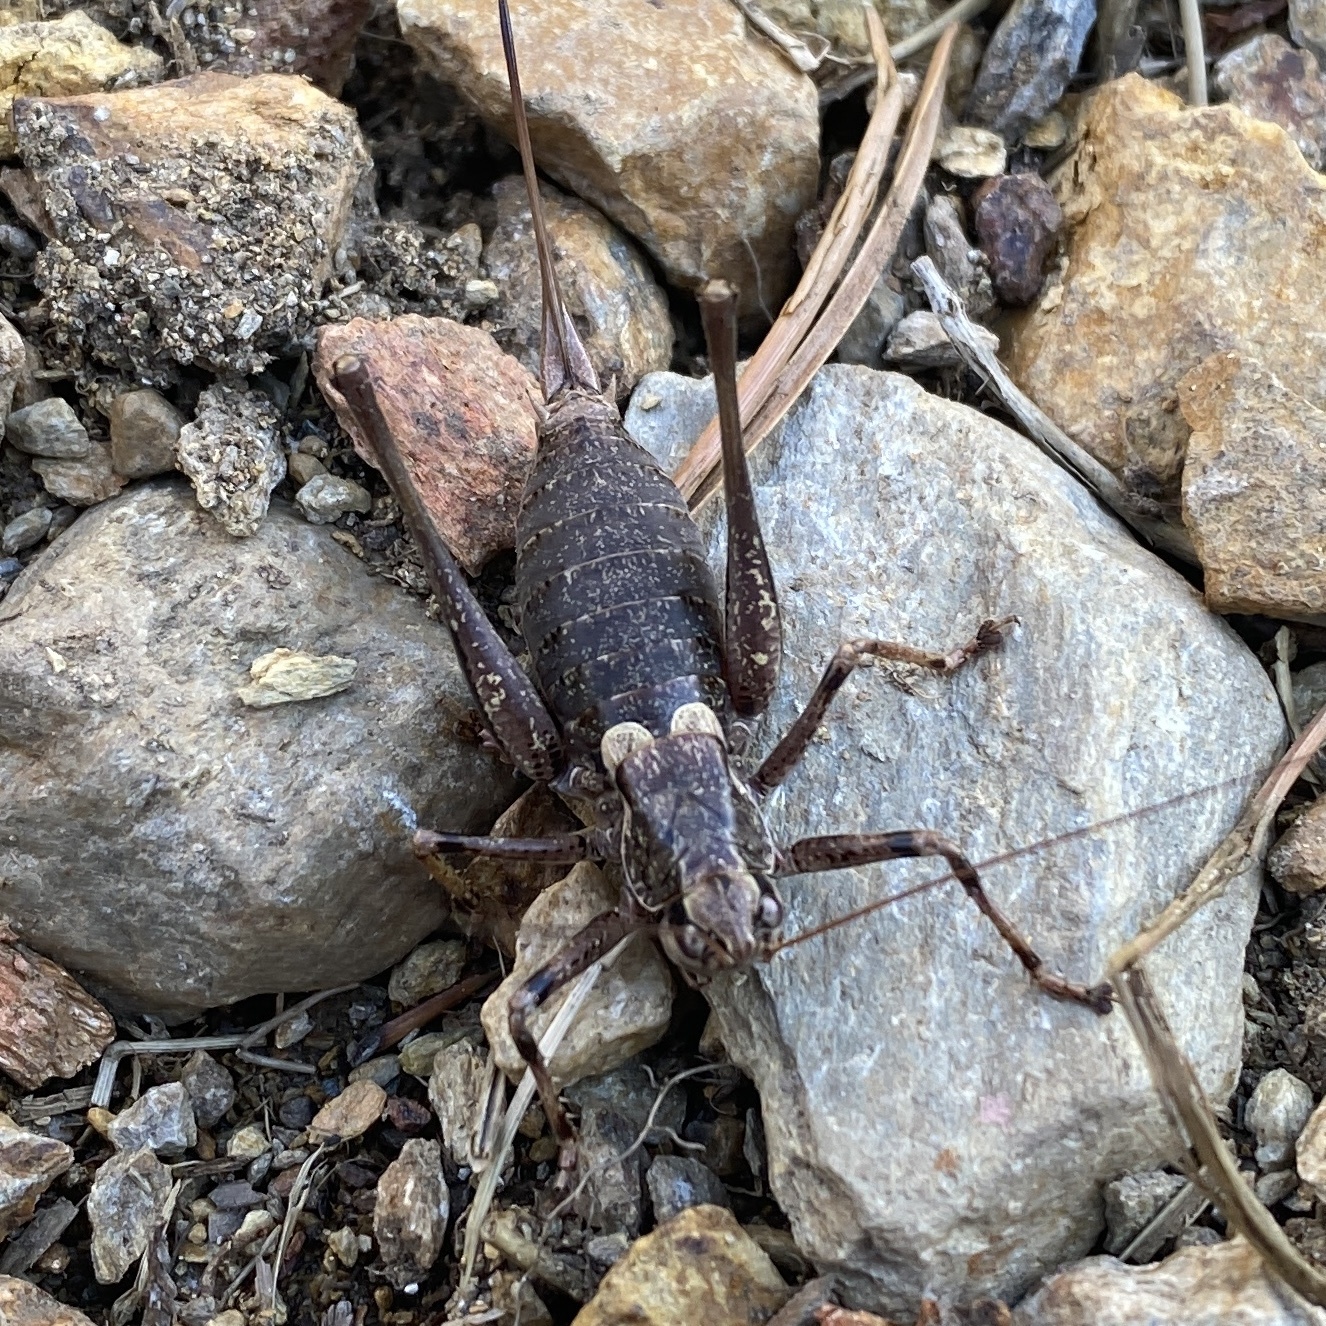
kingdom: Animalia
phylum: Arthropoda
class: Insecta
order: Orthoptera
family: Tettigoniidae
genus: Antaxius
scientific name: Antaxius hispanicus
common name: Pyrenean bush-cricket
